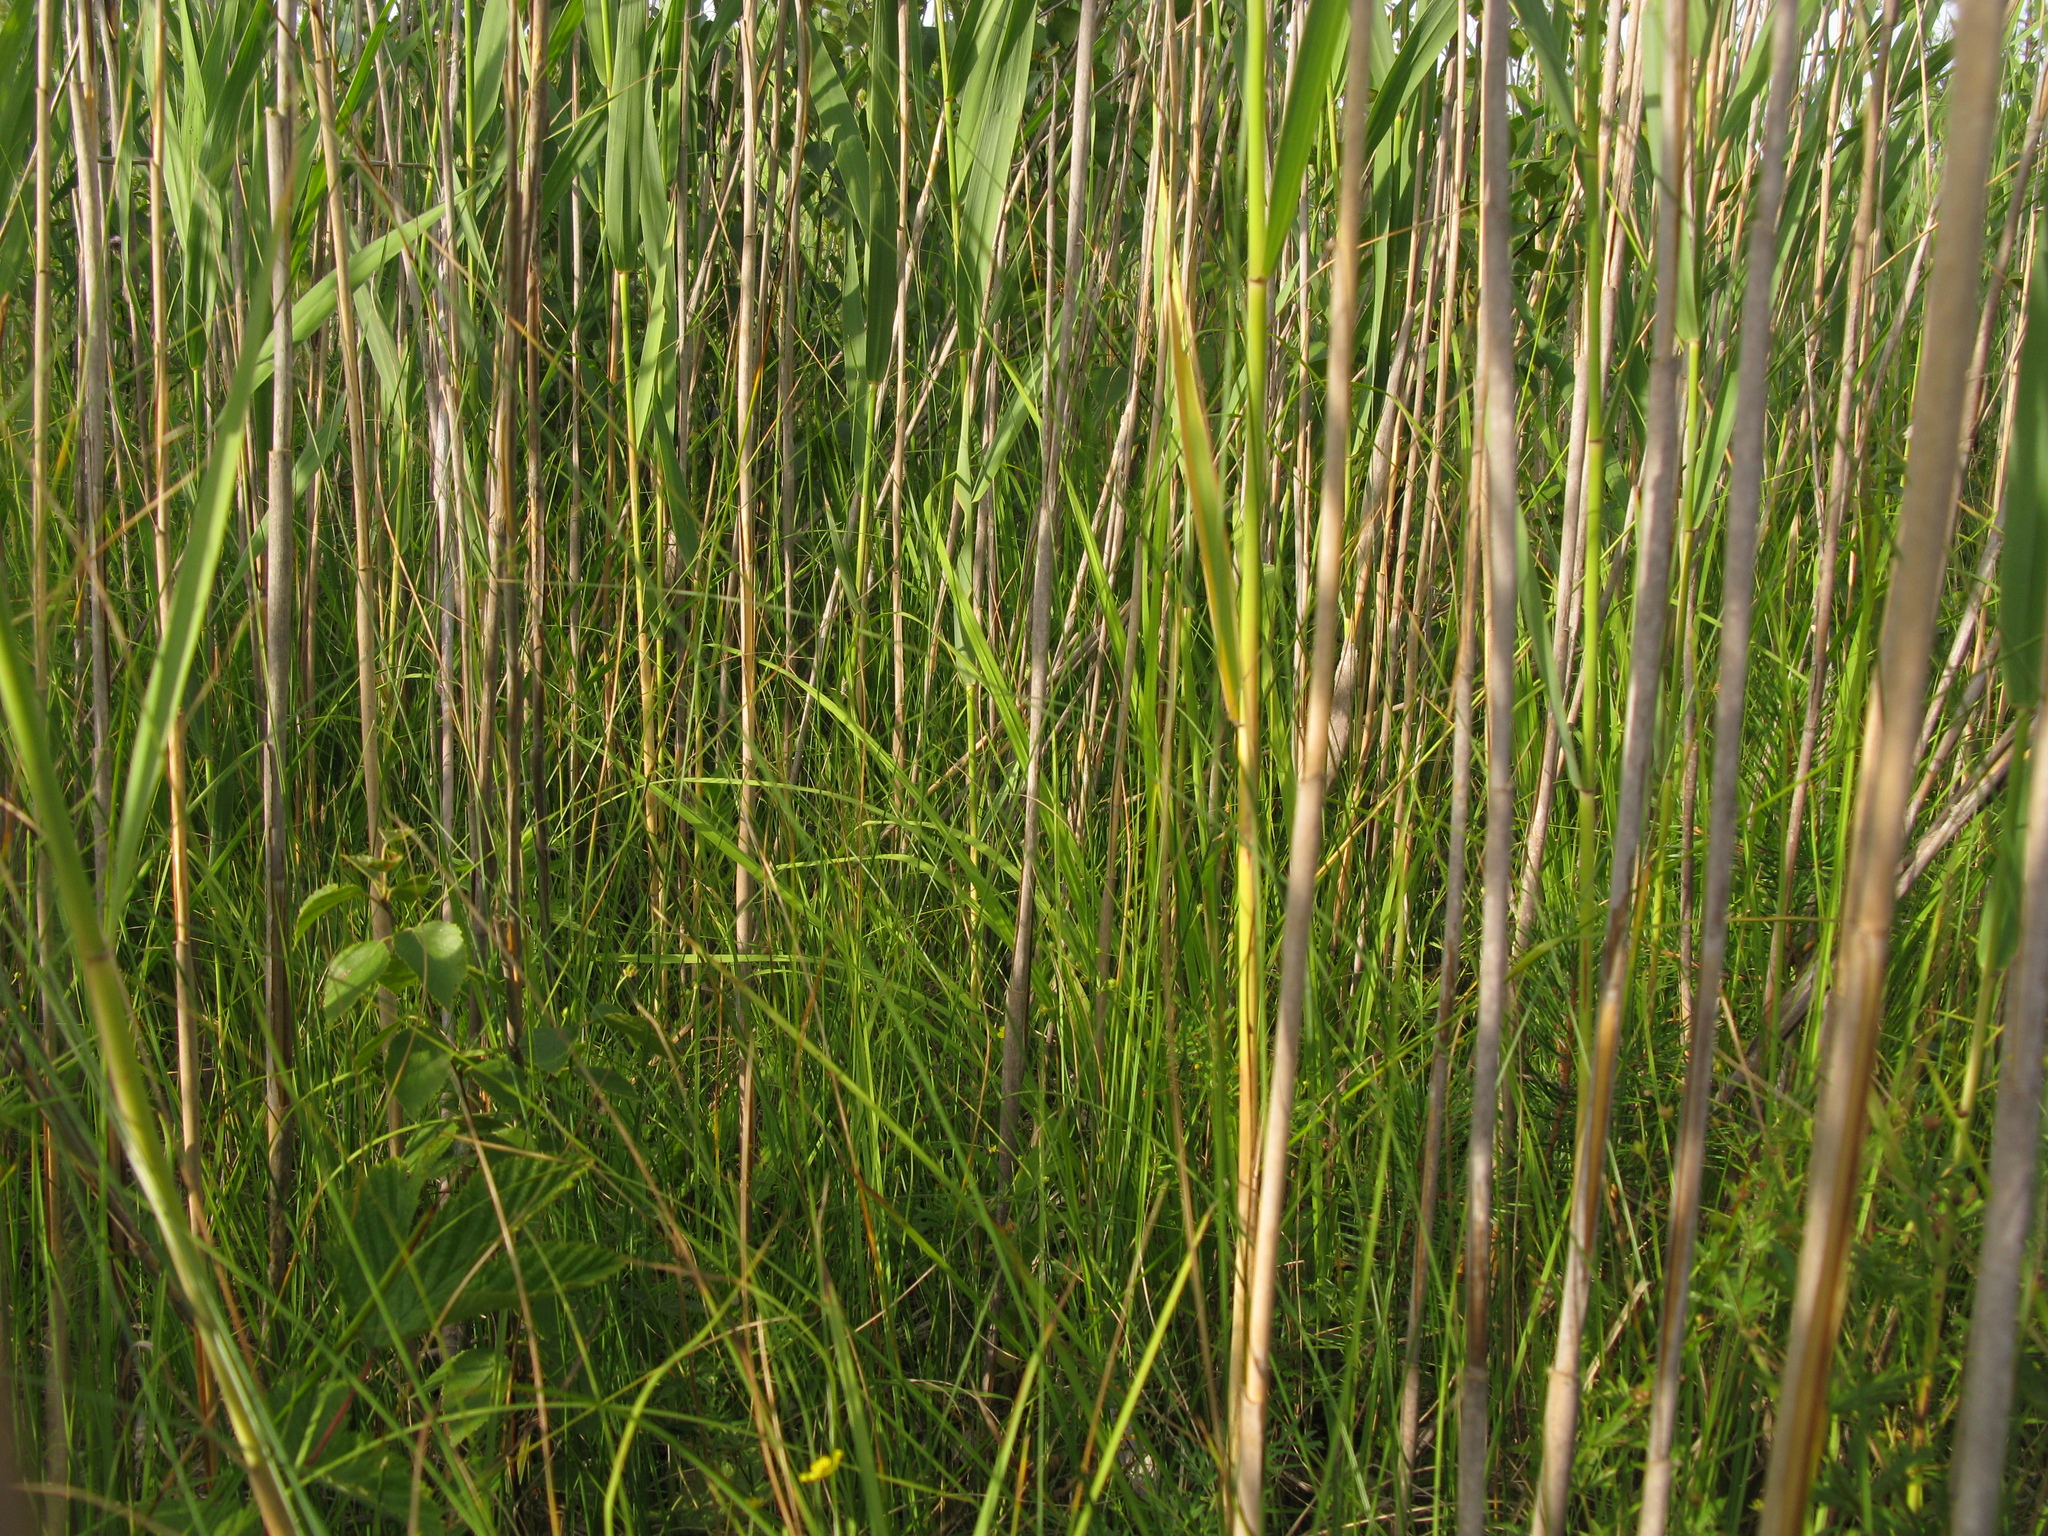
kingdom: Plantae
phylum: Tracheophyta
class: Liliopsida
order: Poales
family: Poaceae
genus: Phragmites
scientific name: Phragmites australis
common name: Common reed
